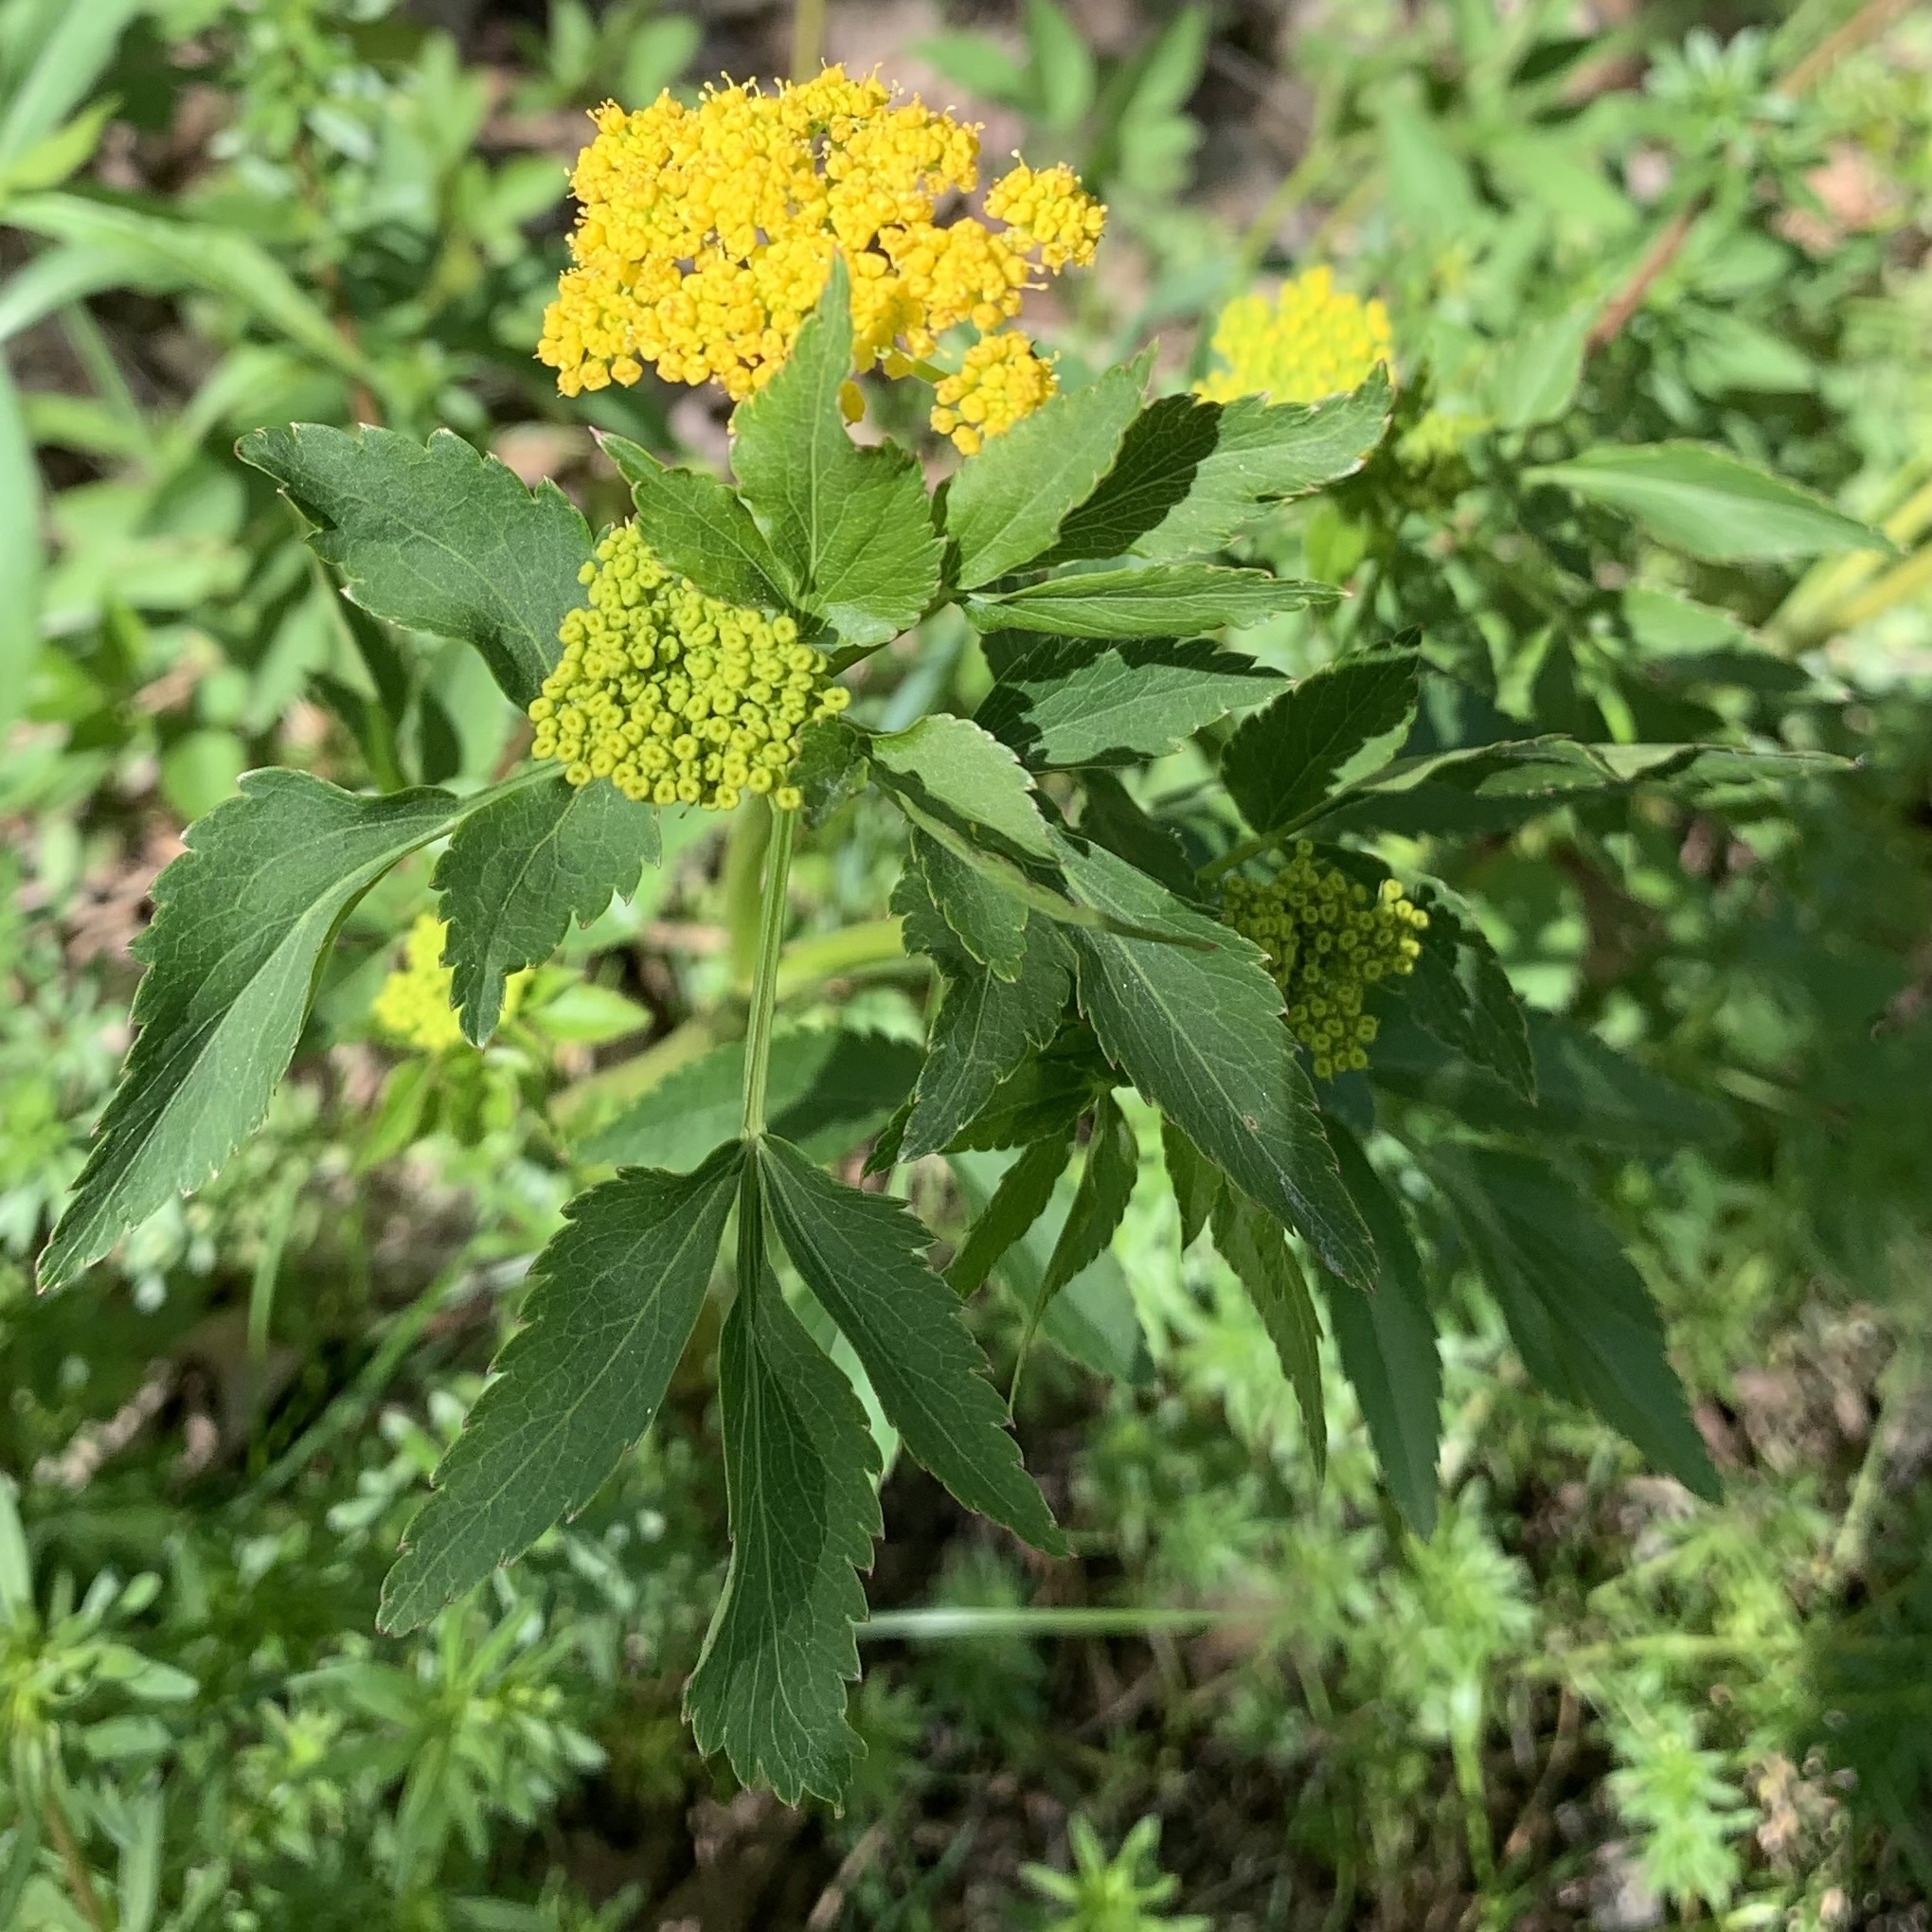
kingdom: Plantae
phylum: Tracheophyta
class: Magnoliopsida
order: Apiales
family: Apiaceae
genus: Zizia
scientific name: Zizia aurea
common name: Golden alexanders
